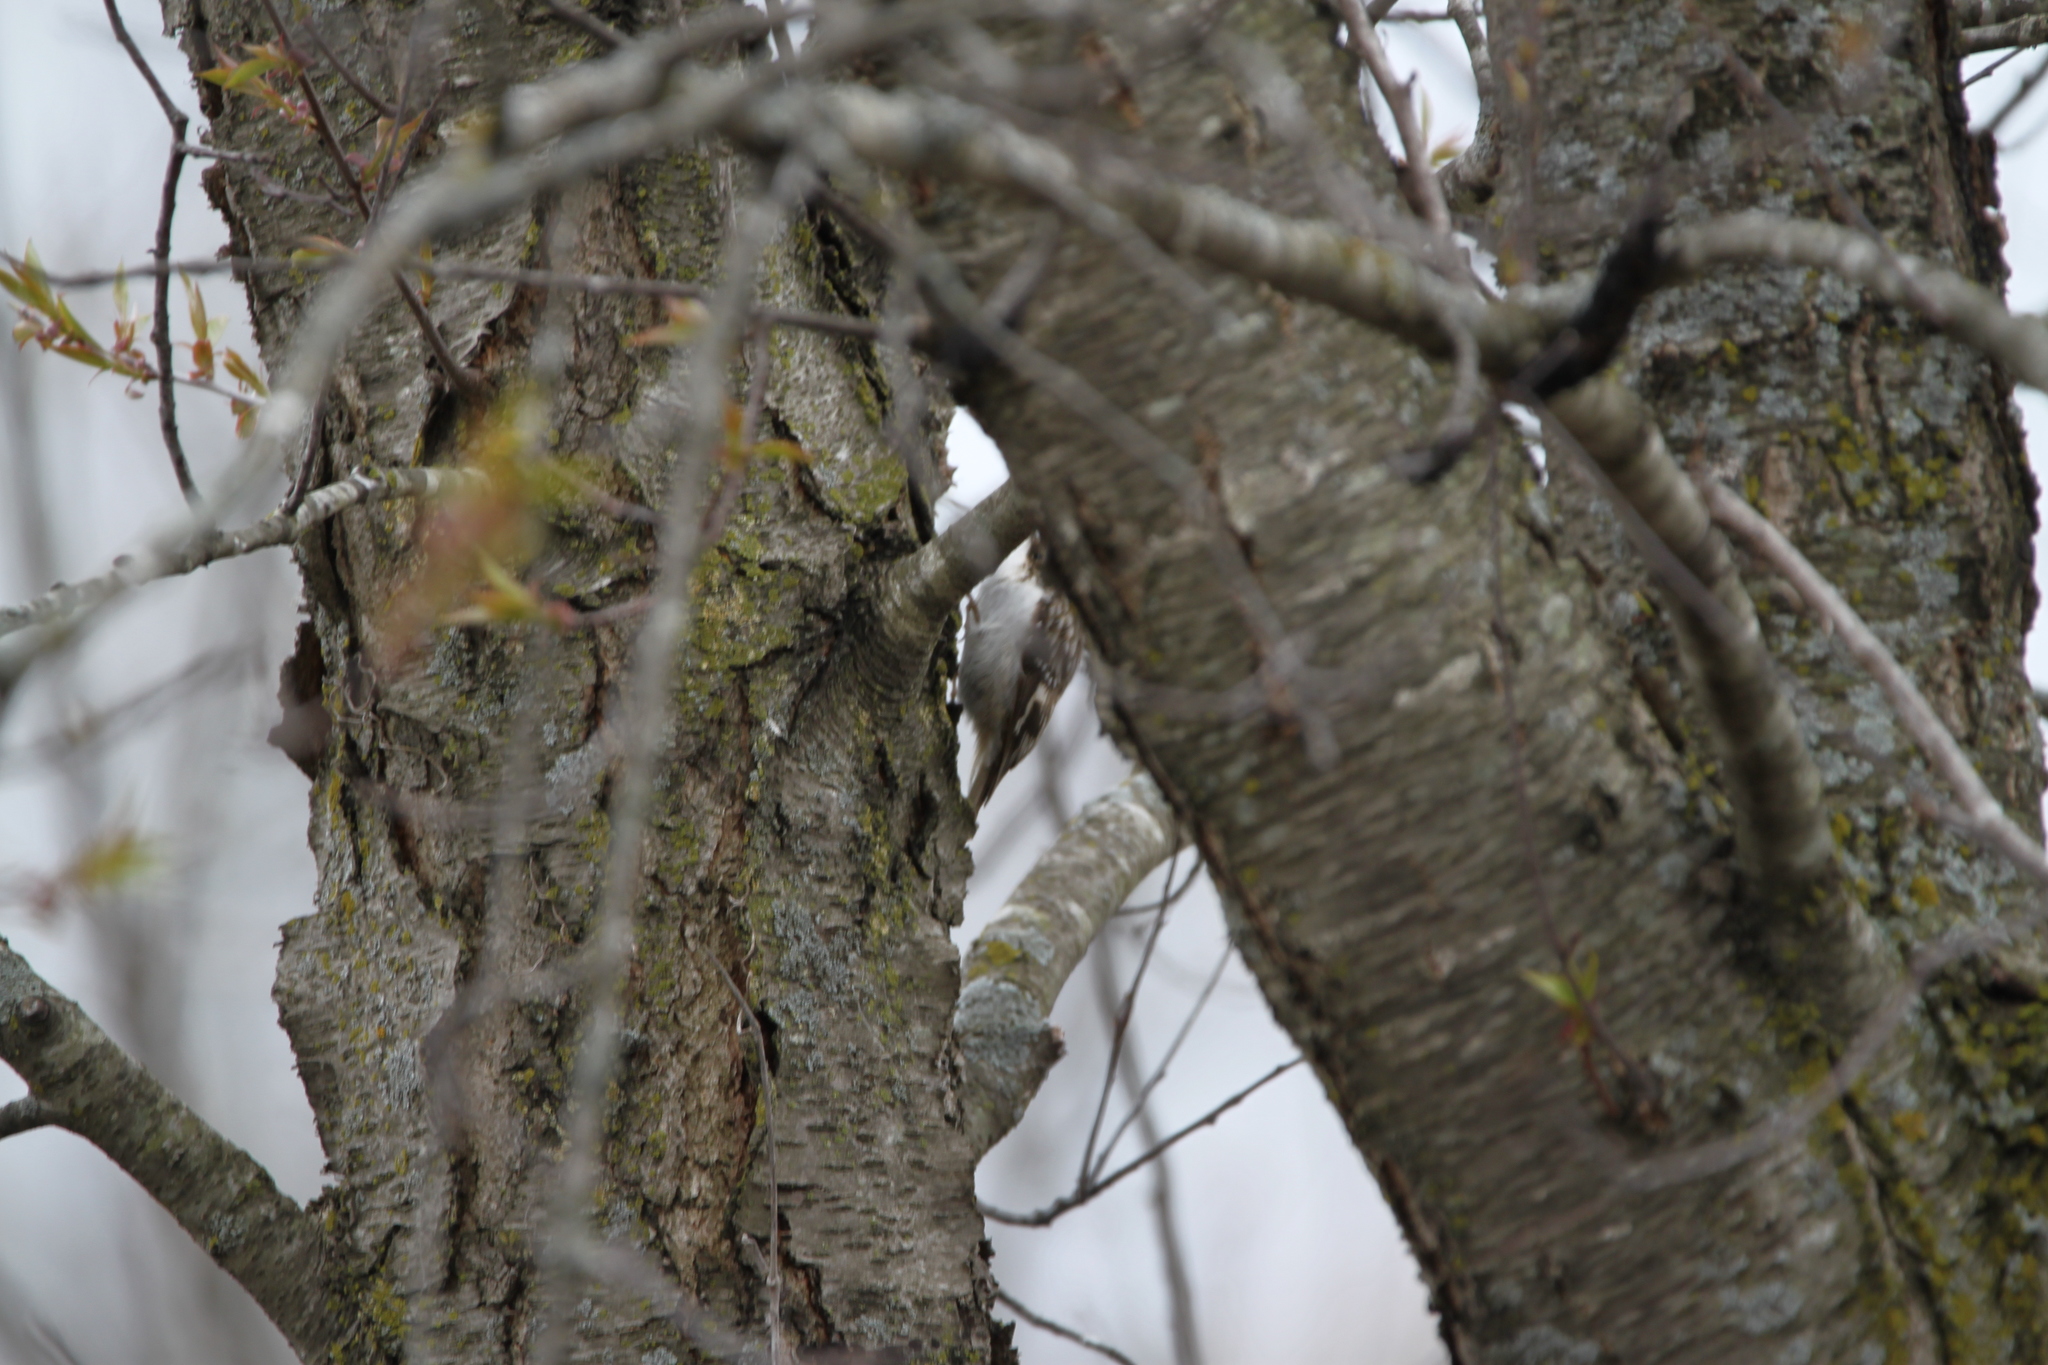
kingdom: Animalia
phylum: Chordata
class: Aves
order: Passeriformes
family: Certhiidae
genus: Certhia
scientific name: Certhia americana
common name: Brown creeper
